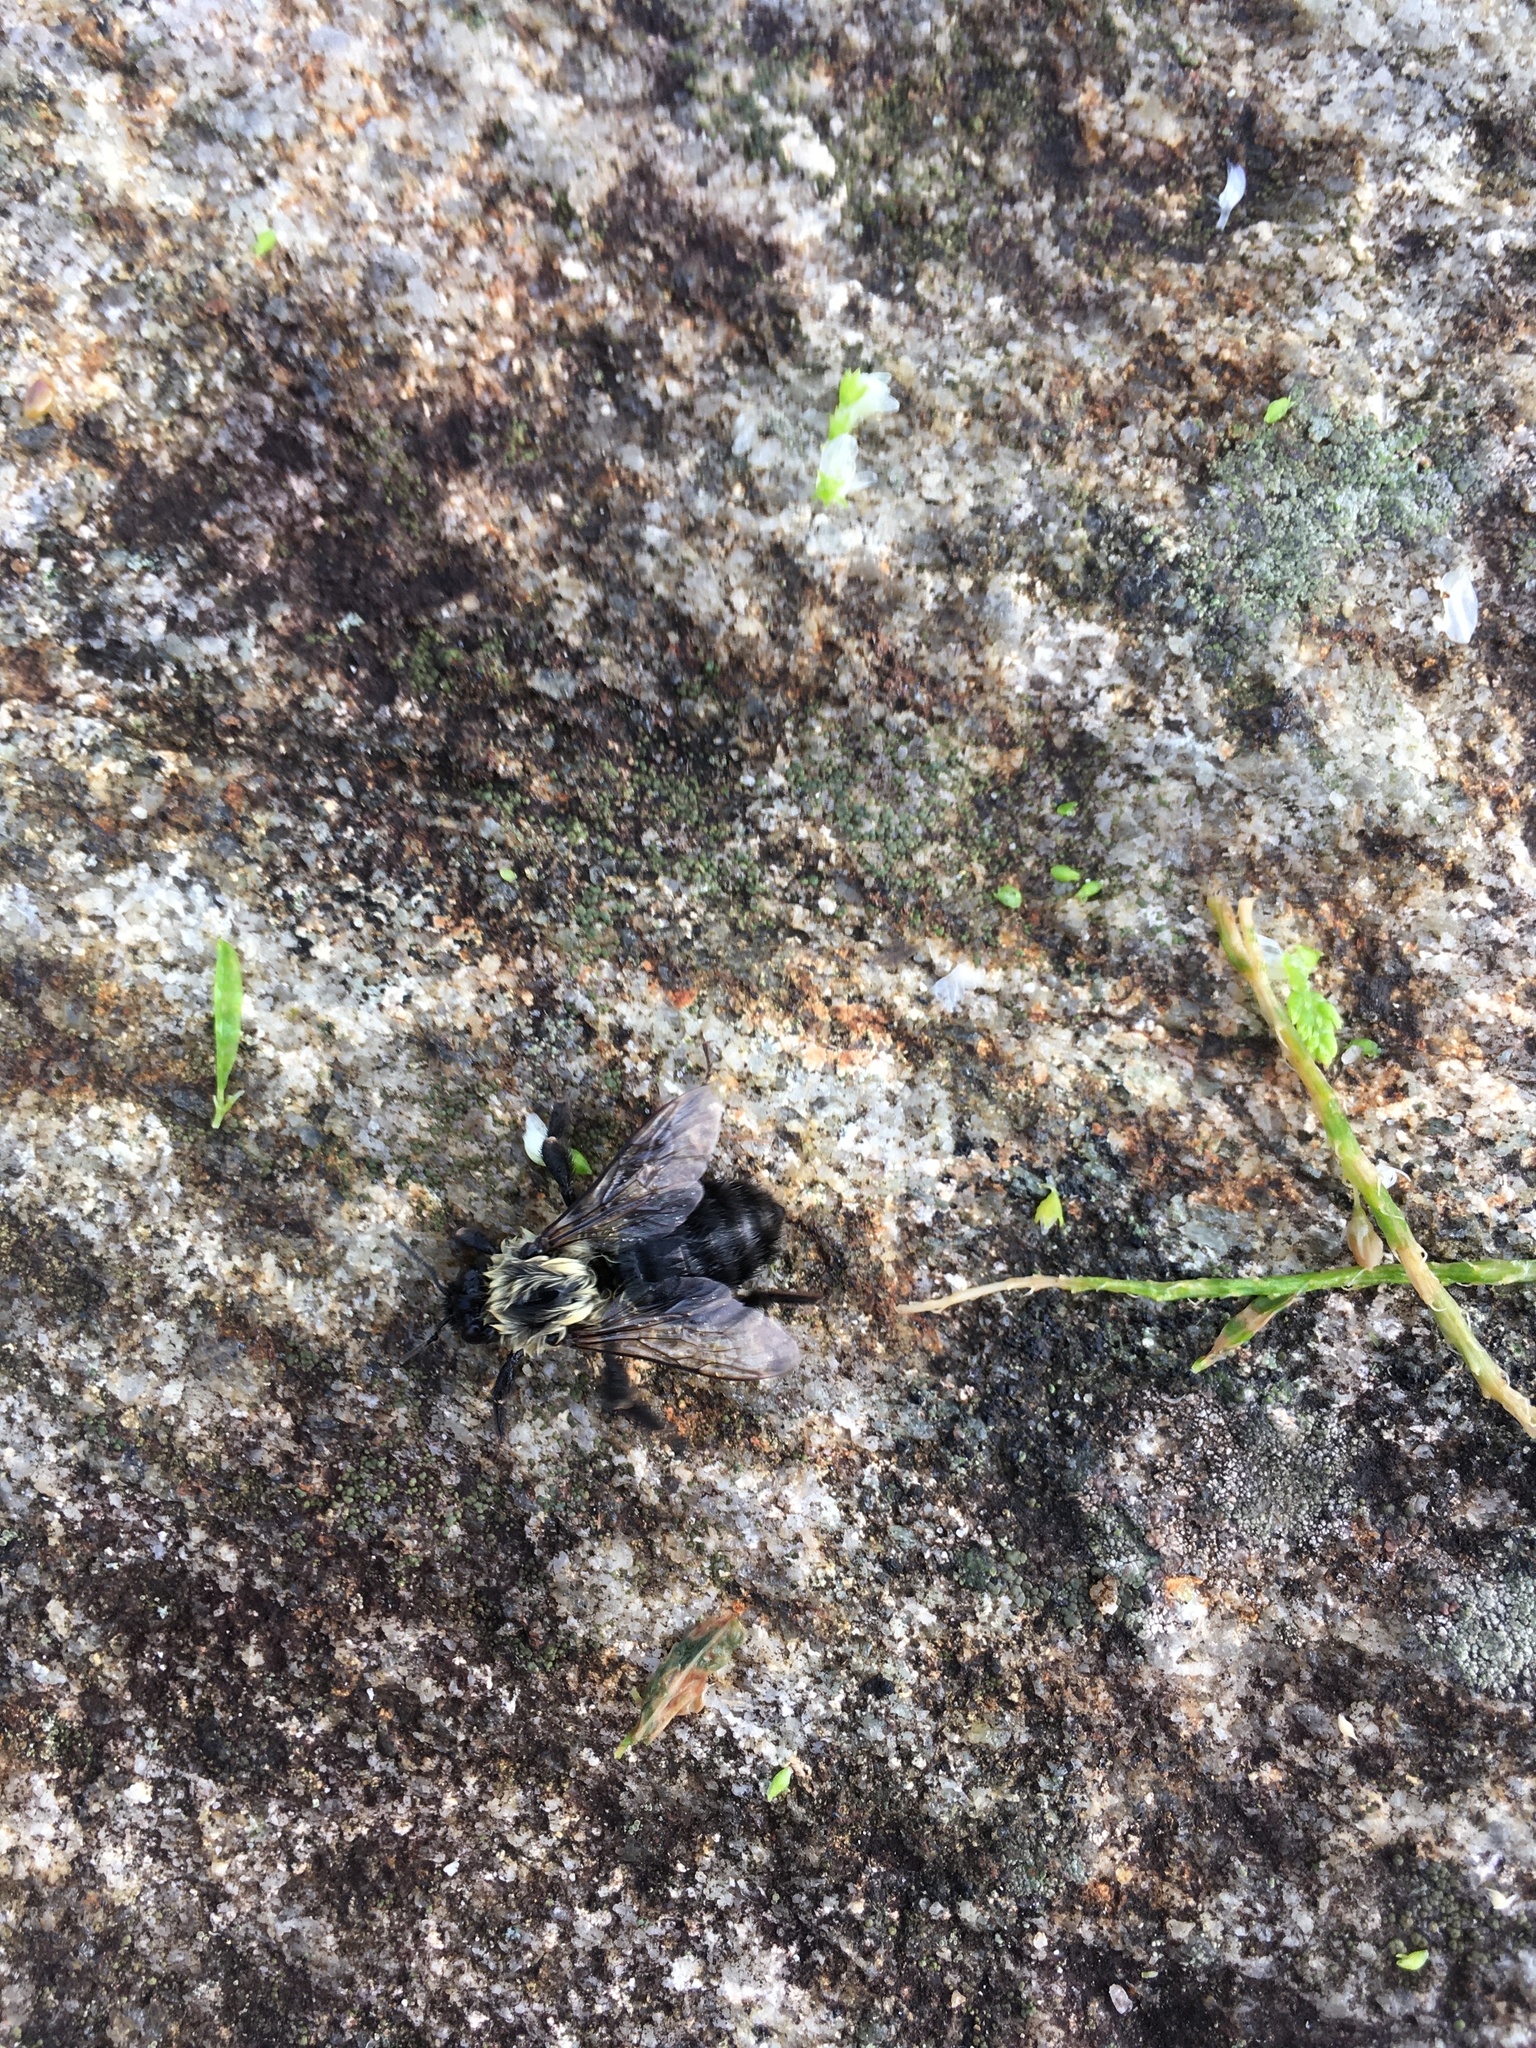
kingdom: Animalia
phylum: Arthropoda
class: Insecta
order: Hymenoptera
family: Apidae
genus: Bombus
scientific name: Bombus impatiens
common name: Common eastern bumble bee
